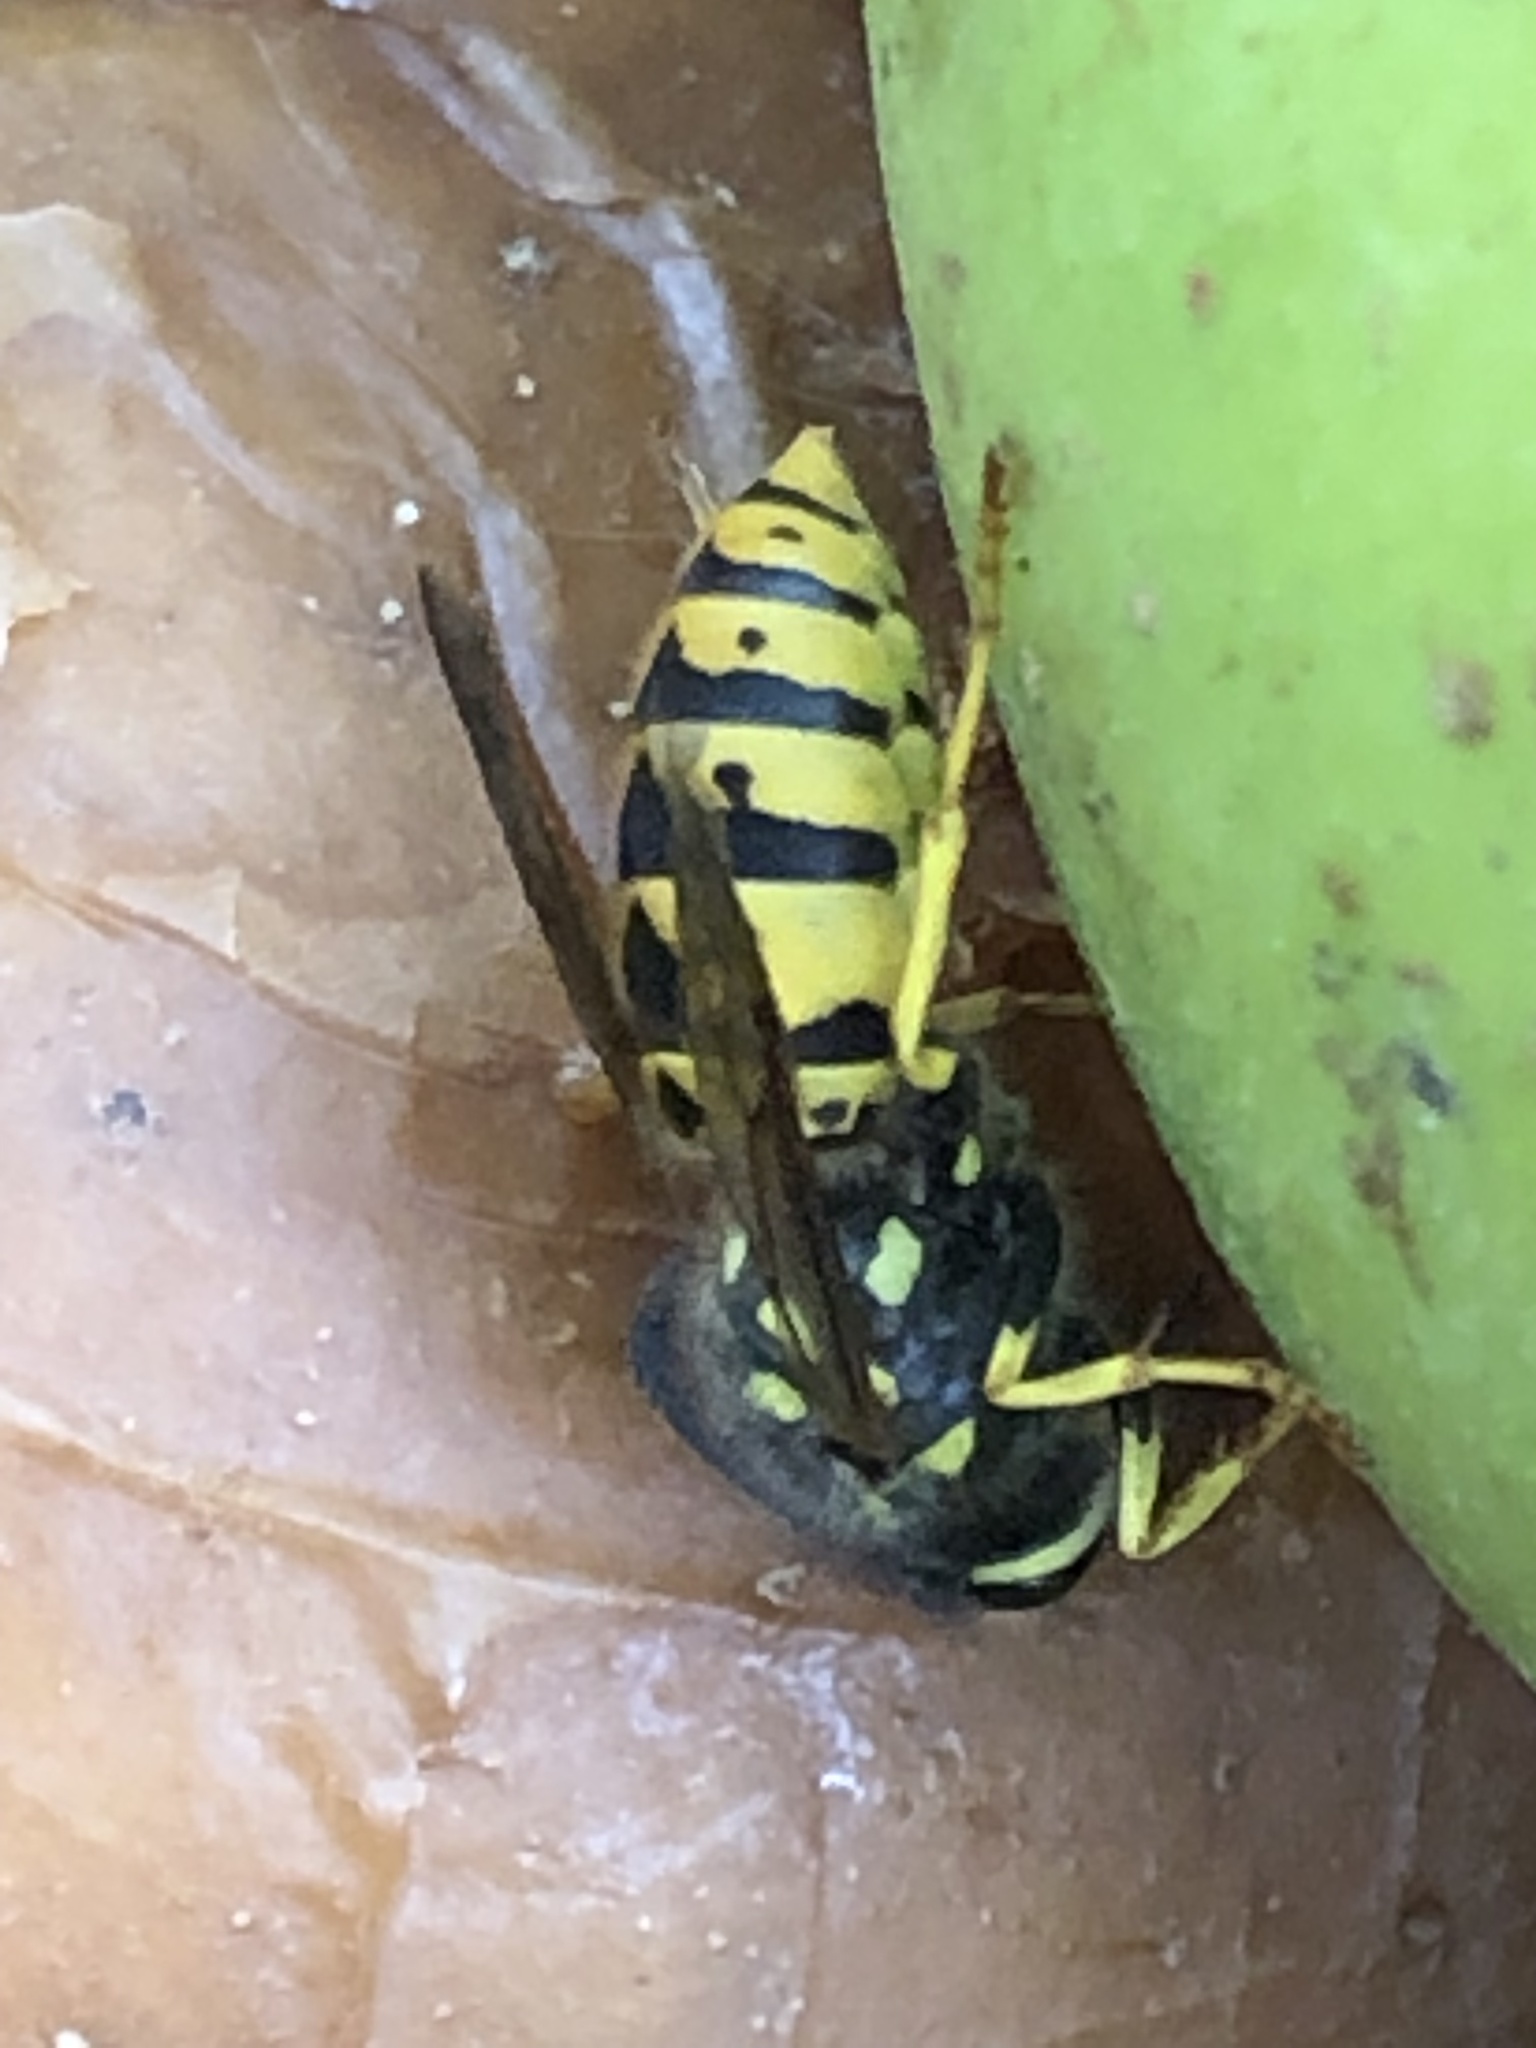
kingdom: Animalia
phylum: Arthropoda
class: Insecta
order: Hymenoptera
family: Vespidae
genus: Vespula
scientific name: Vespula germanica
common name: German wasp
